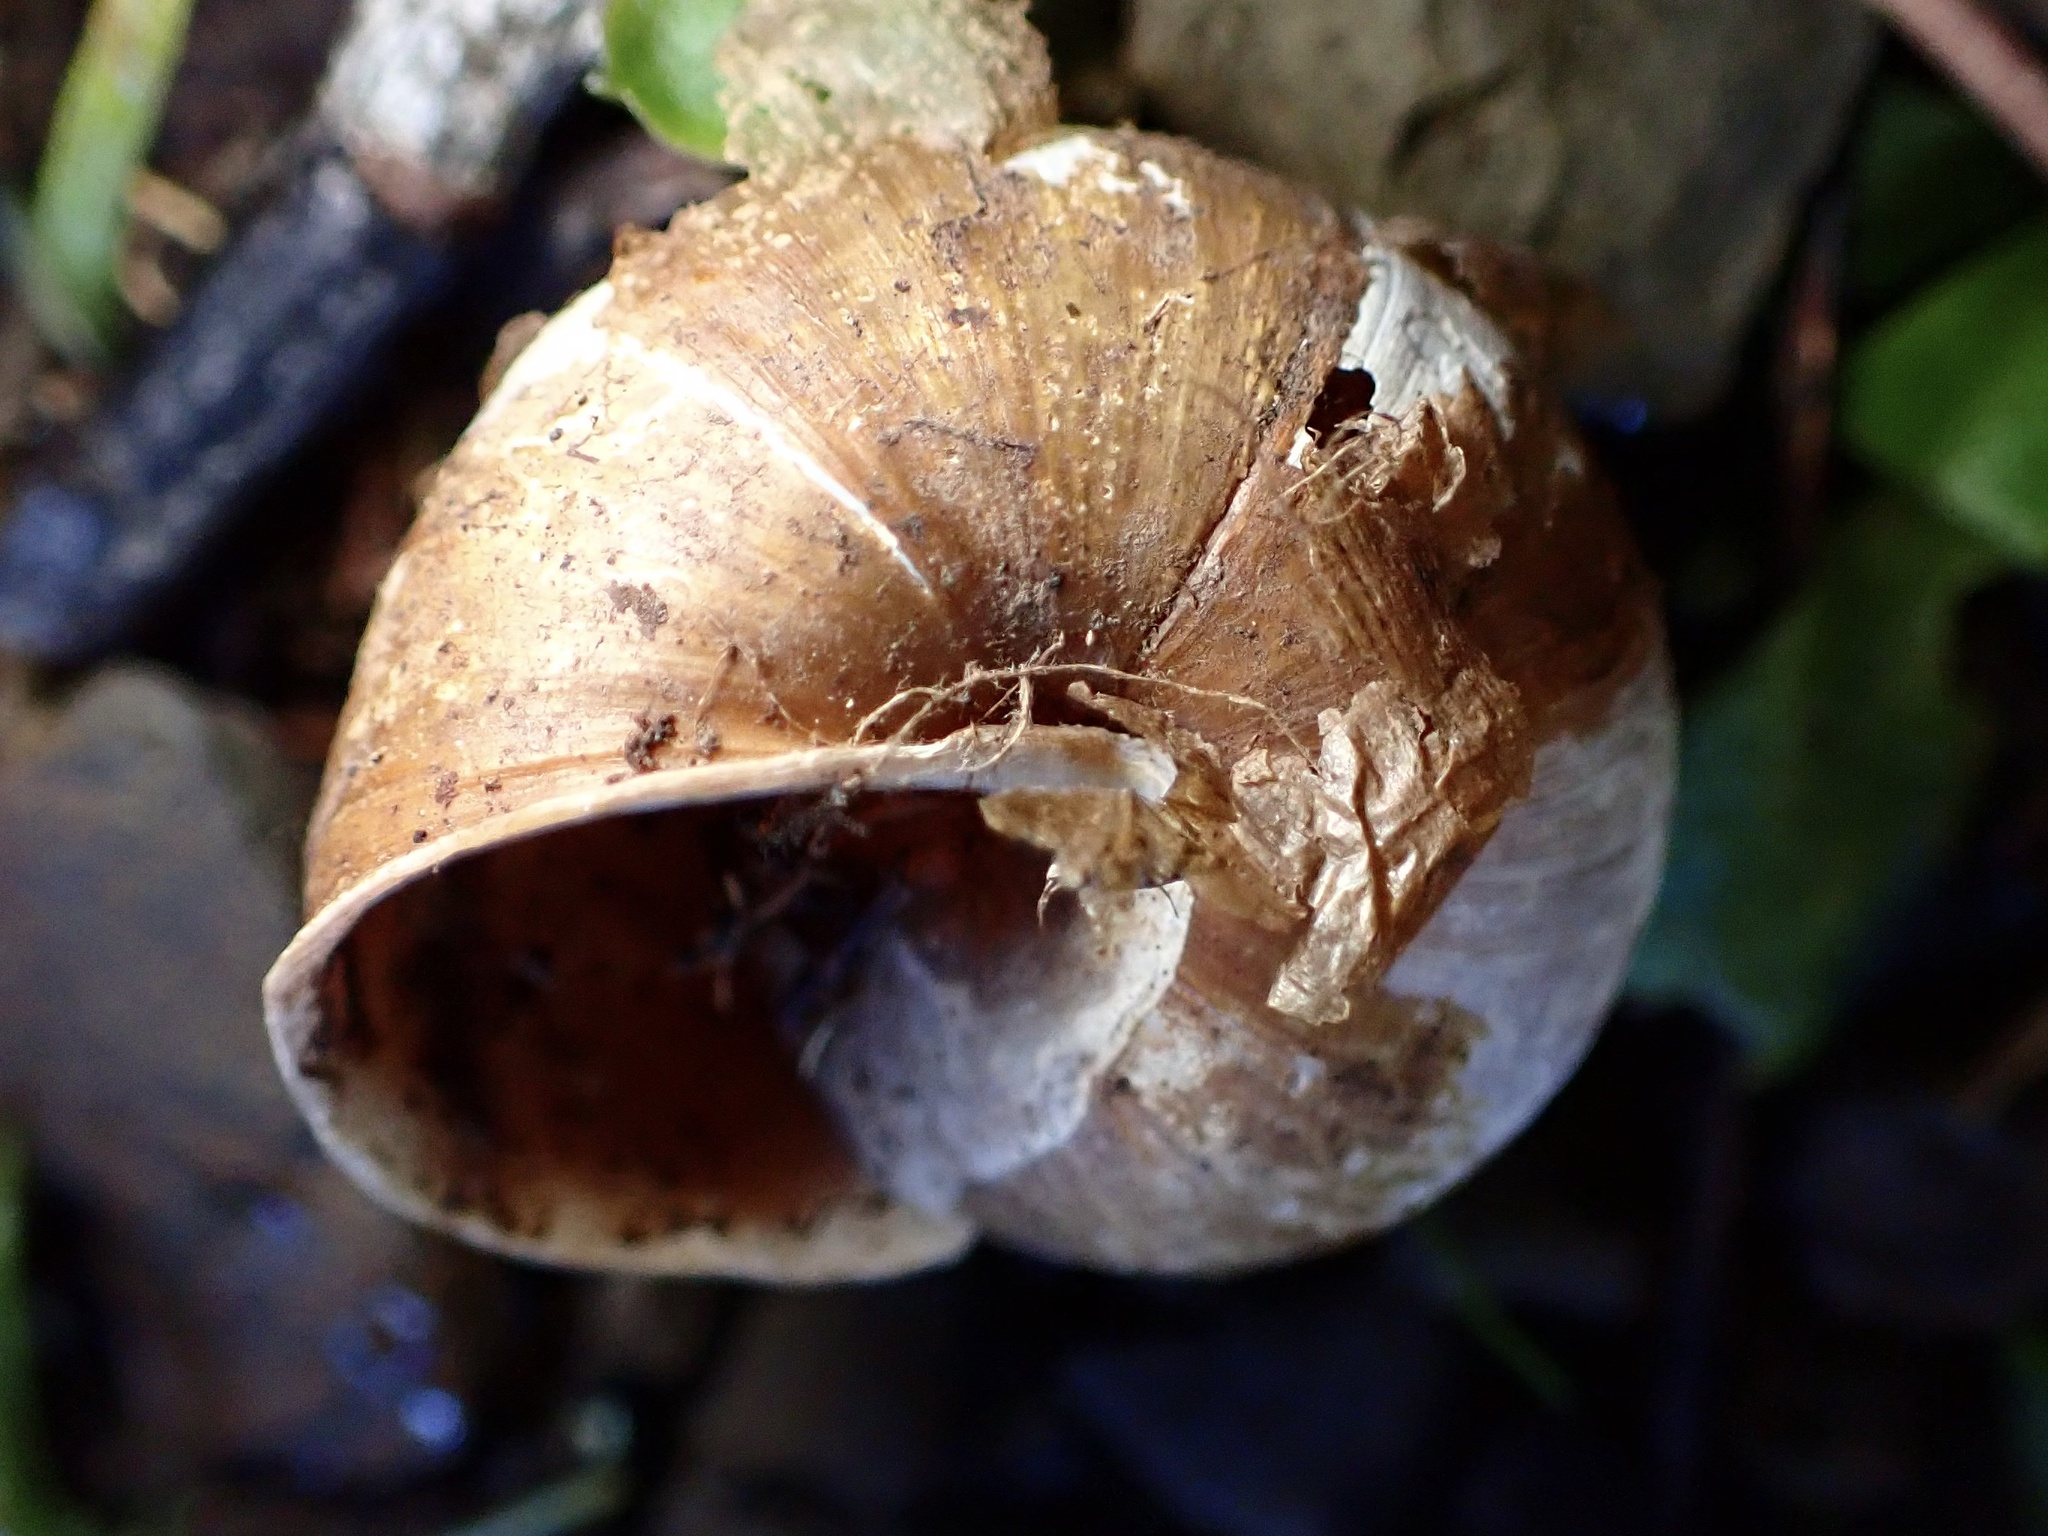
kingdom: Animalia
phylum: Mollusca
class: Gastropoda
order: Stylommatophora
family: Xanthonychidae
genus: Helminthoglypta
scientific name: Helminthoglypta nickliniana
